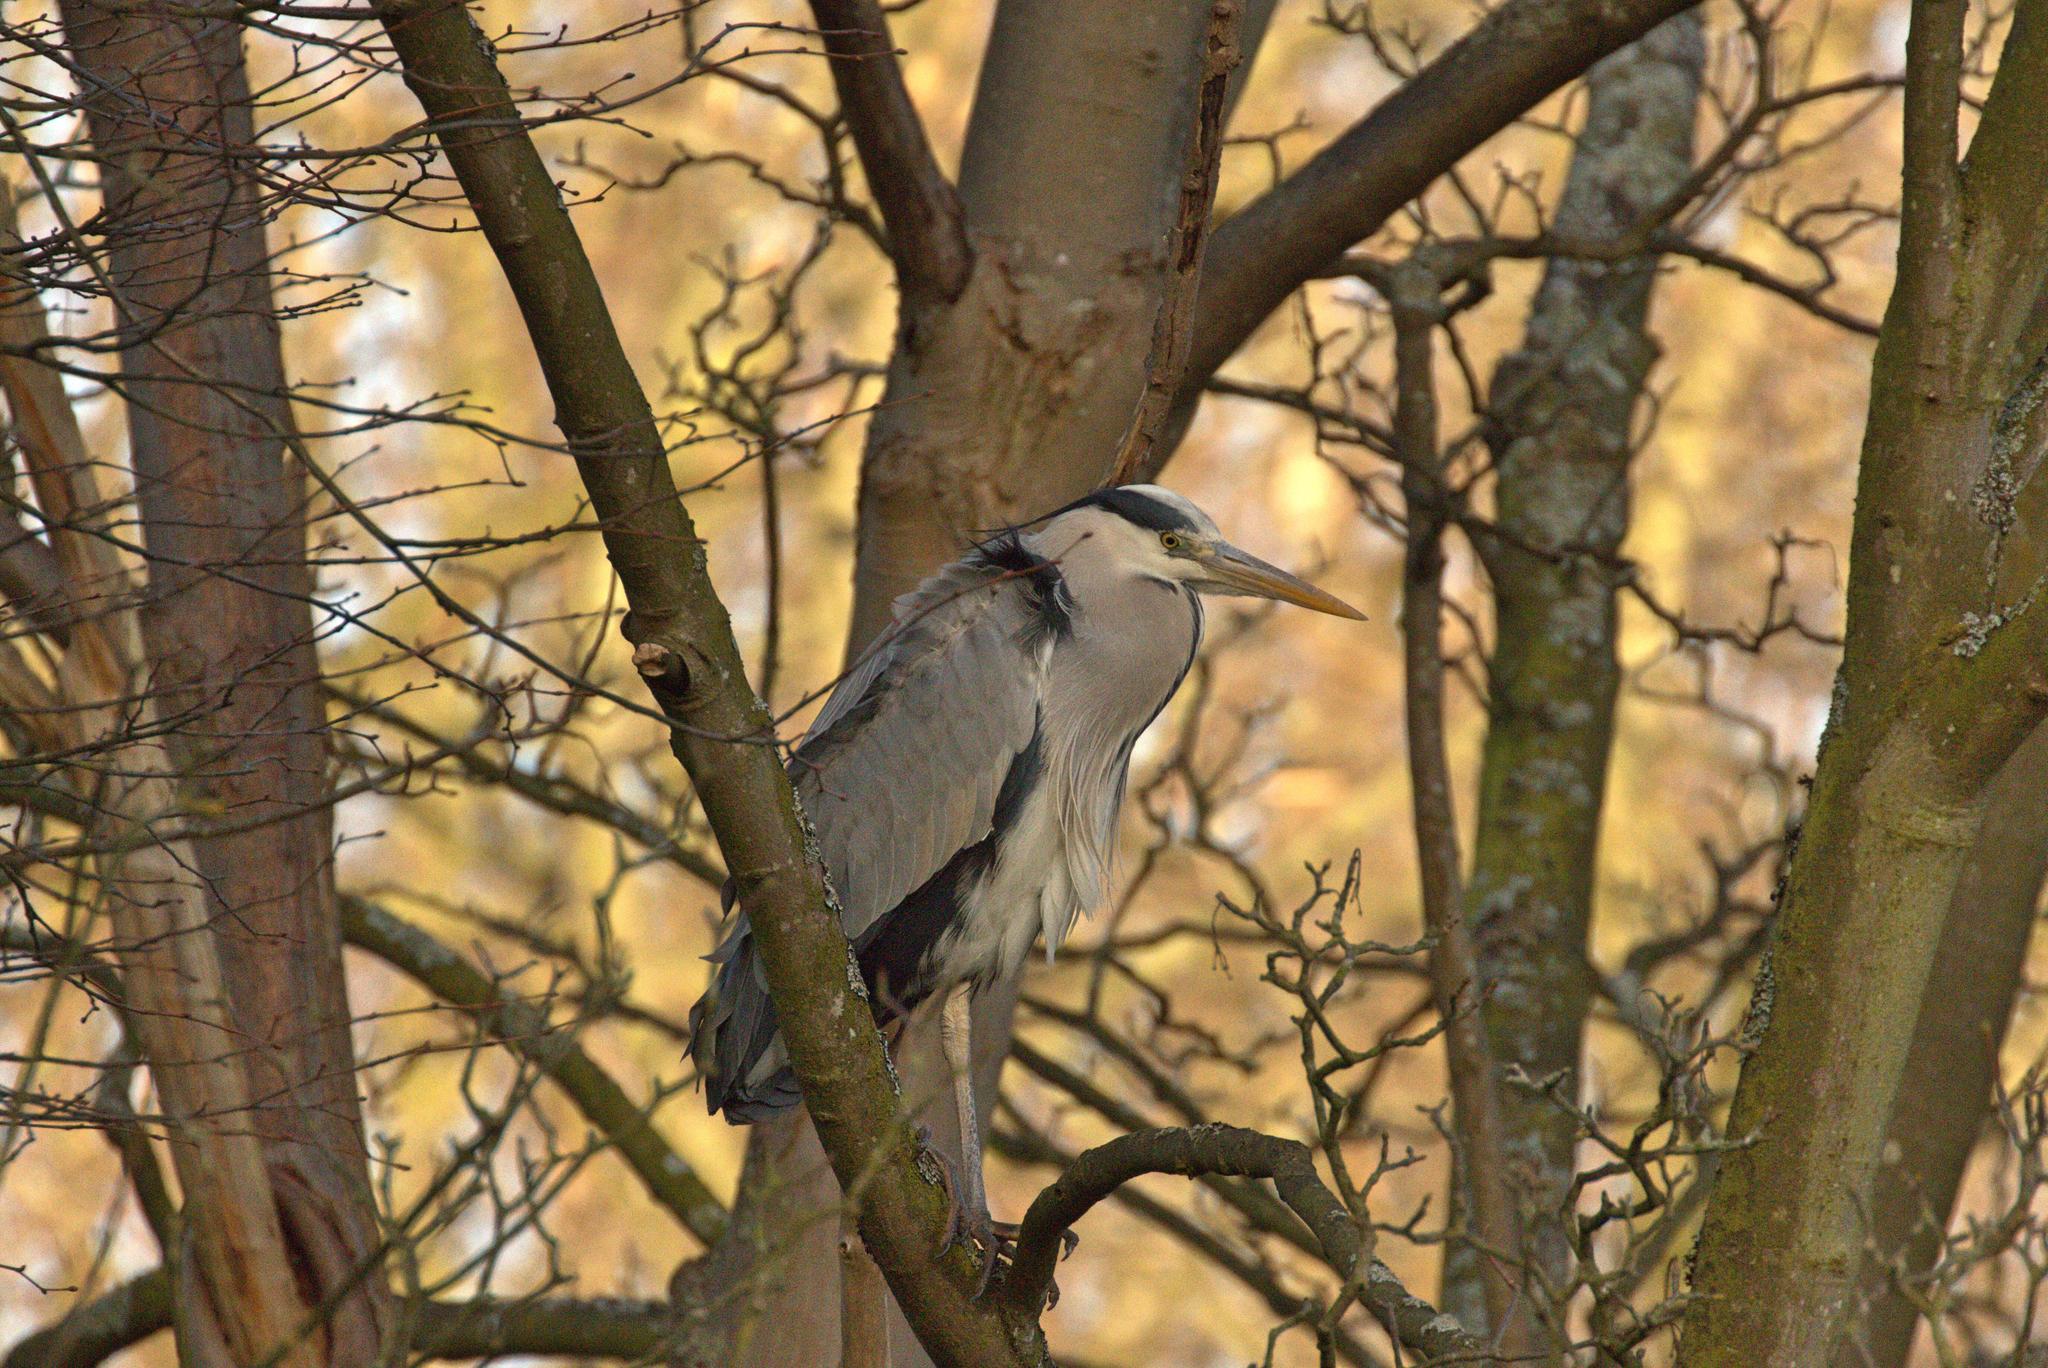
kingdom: Animalia
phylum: Chordata
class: Aves
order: Pelecaniformes
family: Ardeidae
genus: Ardea
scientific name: Ardea cinerea
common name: Grey heron
